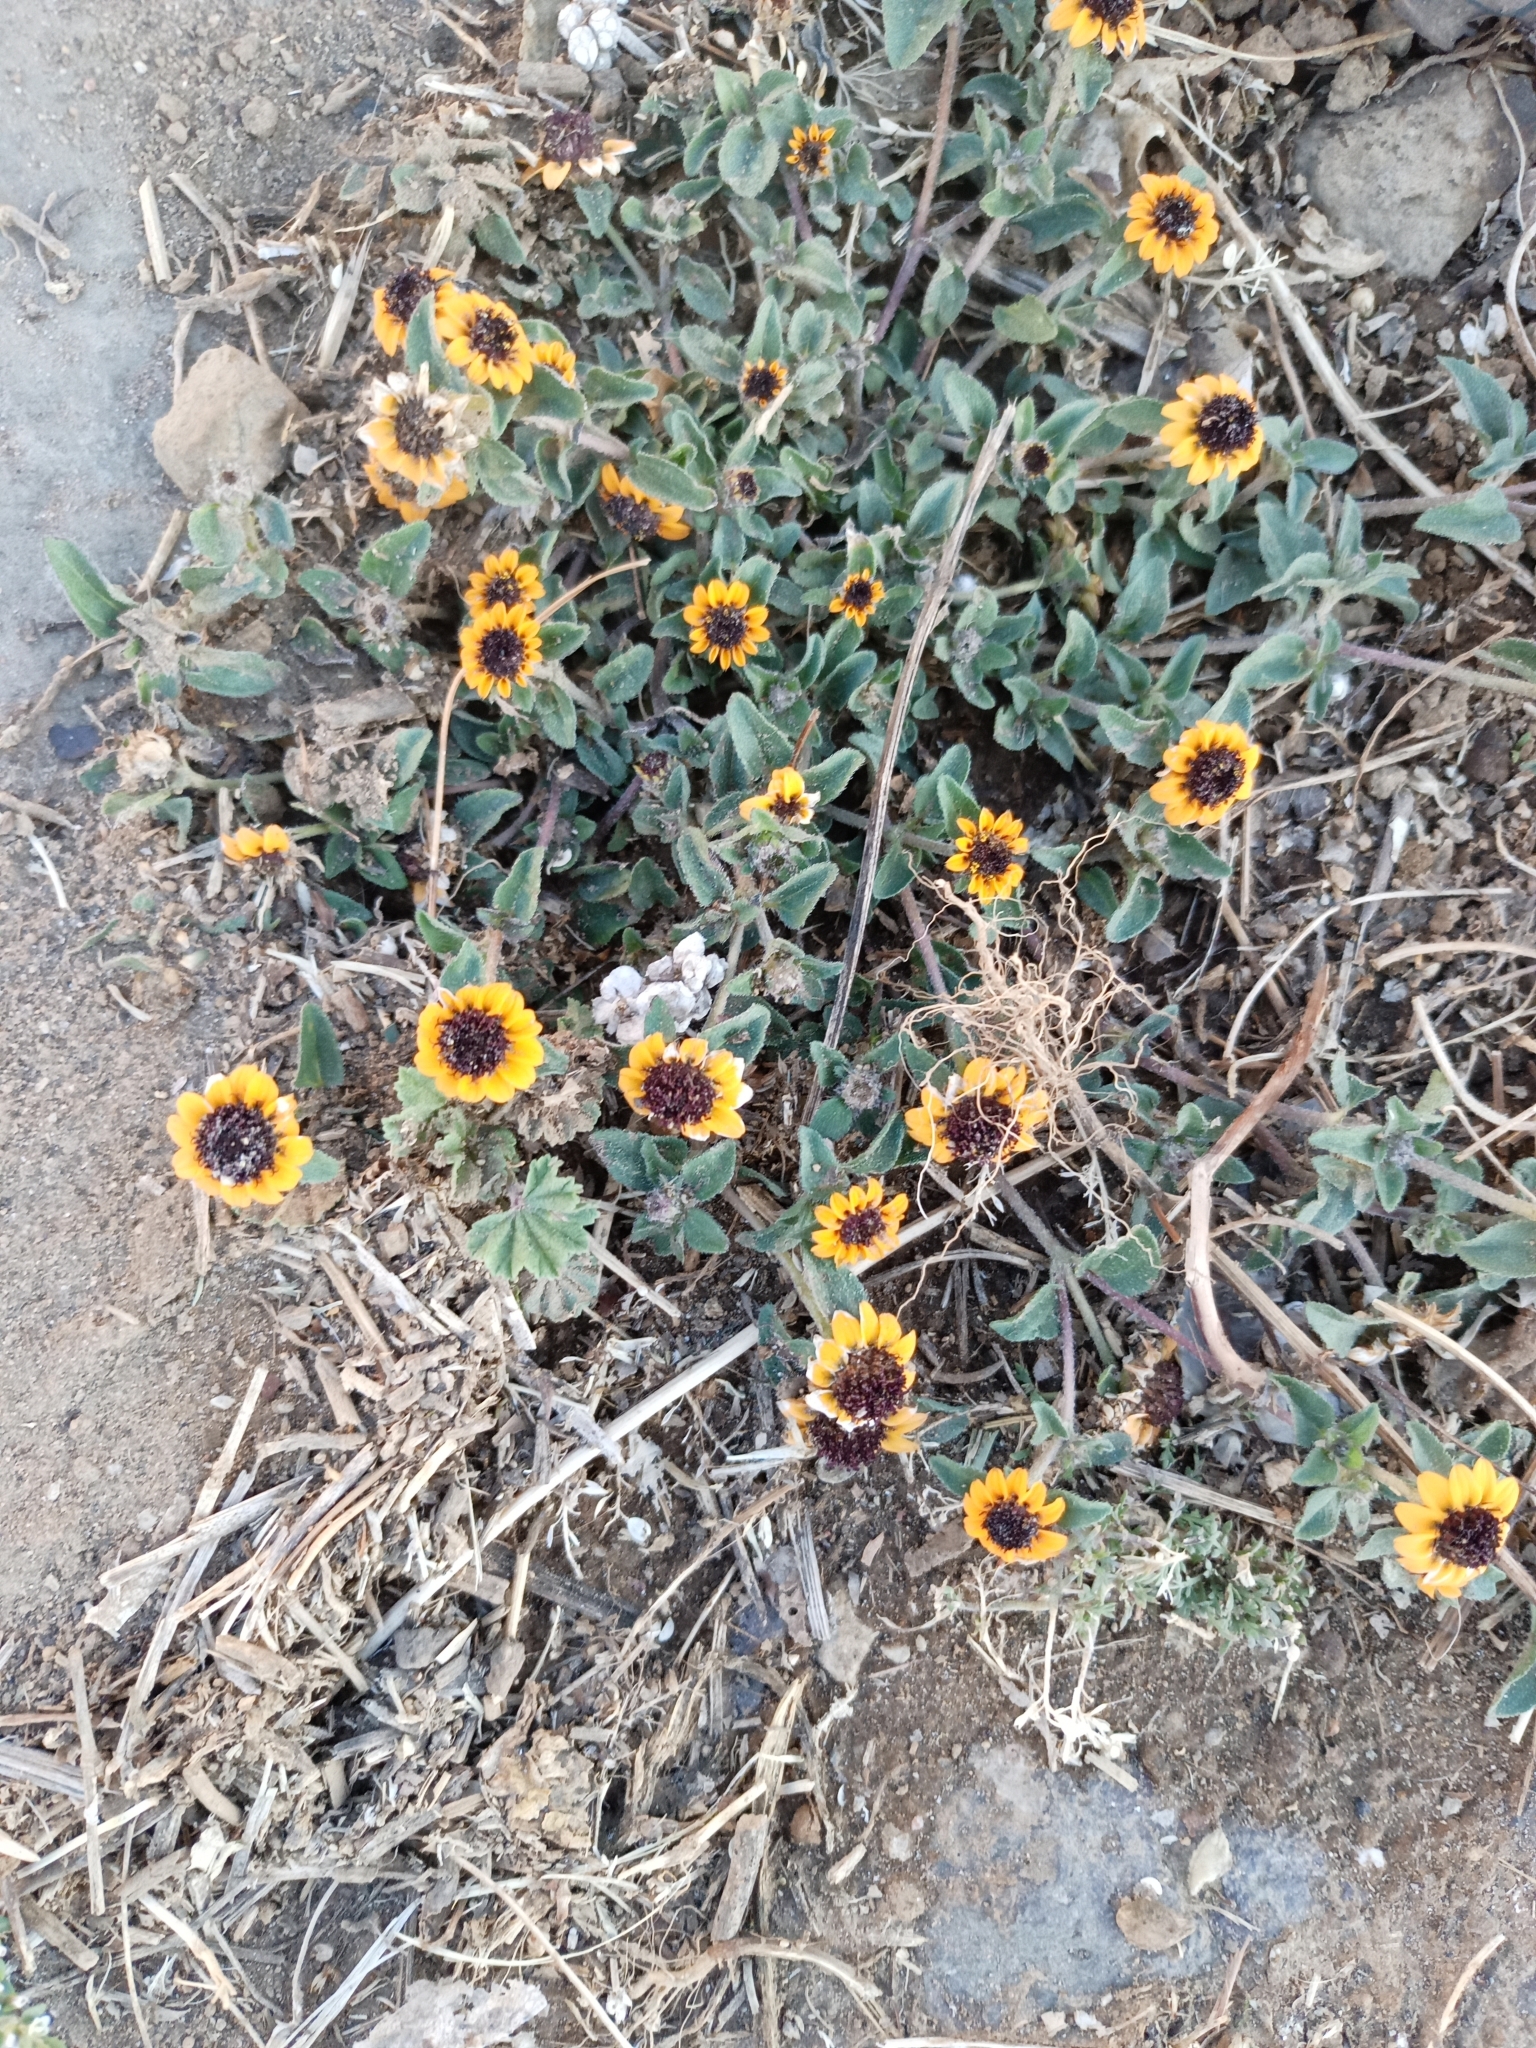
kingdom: Plantae
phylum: Tracheophyta
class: Magnoliopsida
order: Asterales
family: Asteraceae
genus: Sanvitalia
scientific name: Sanvitalia procumbens
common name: Mexican creeping zinnia
